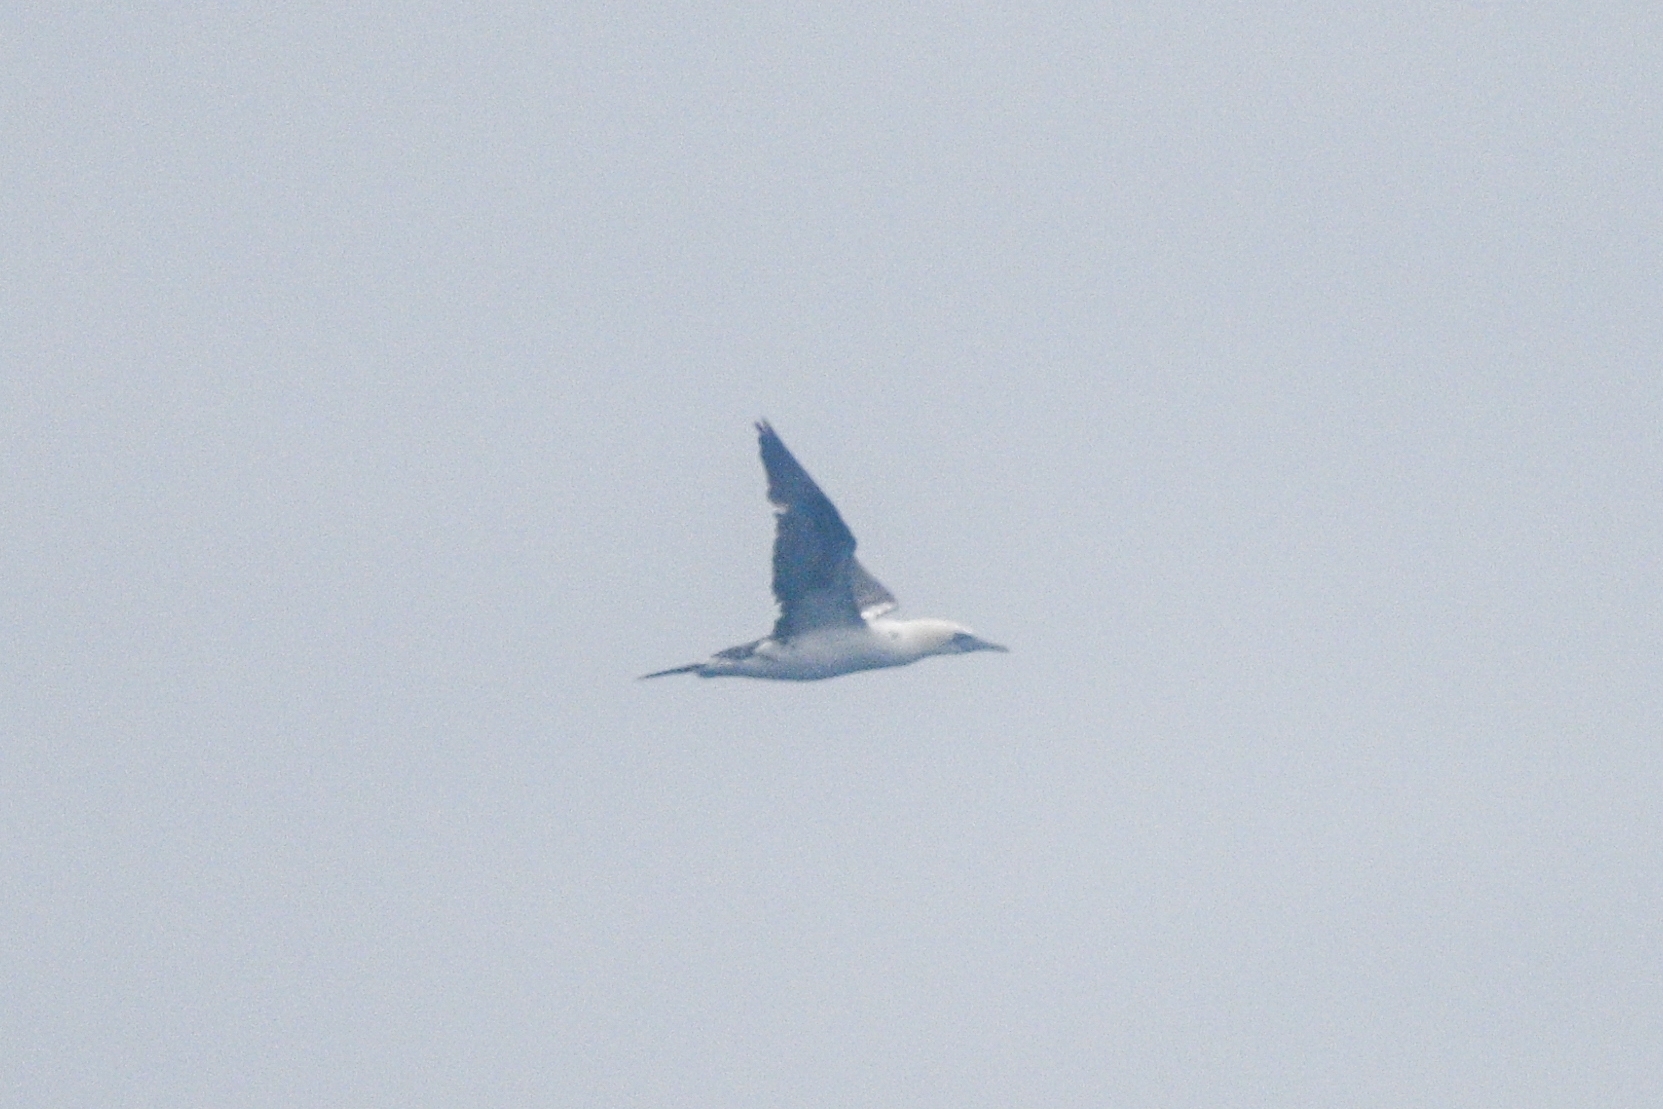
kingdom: Animalia
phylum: Chordata
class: Aves
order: Suliformes
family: Sulidae
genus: Morus
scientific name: Morus bassanus
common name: Northern gannet
